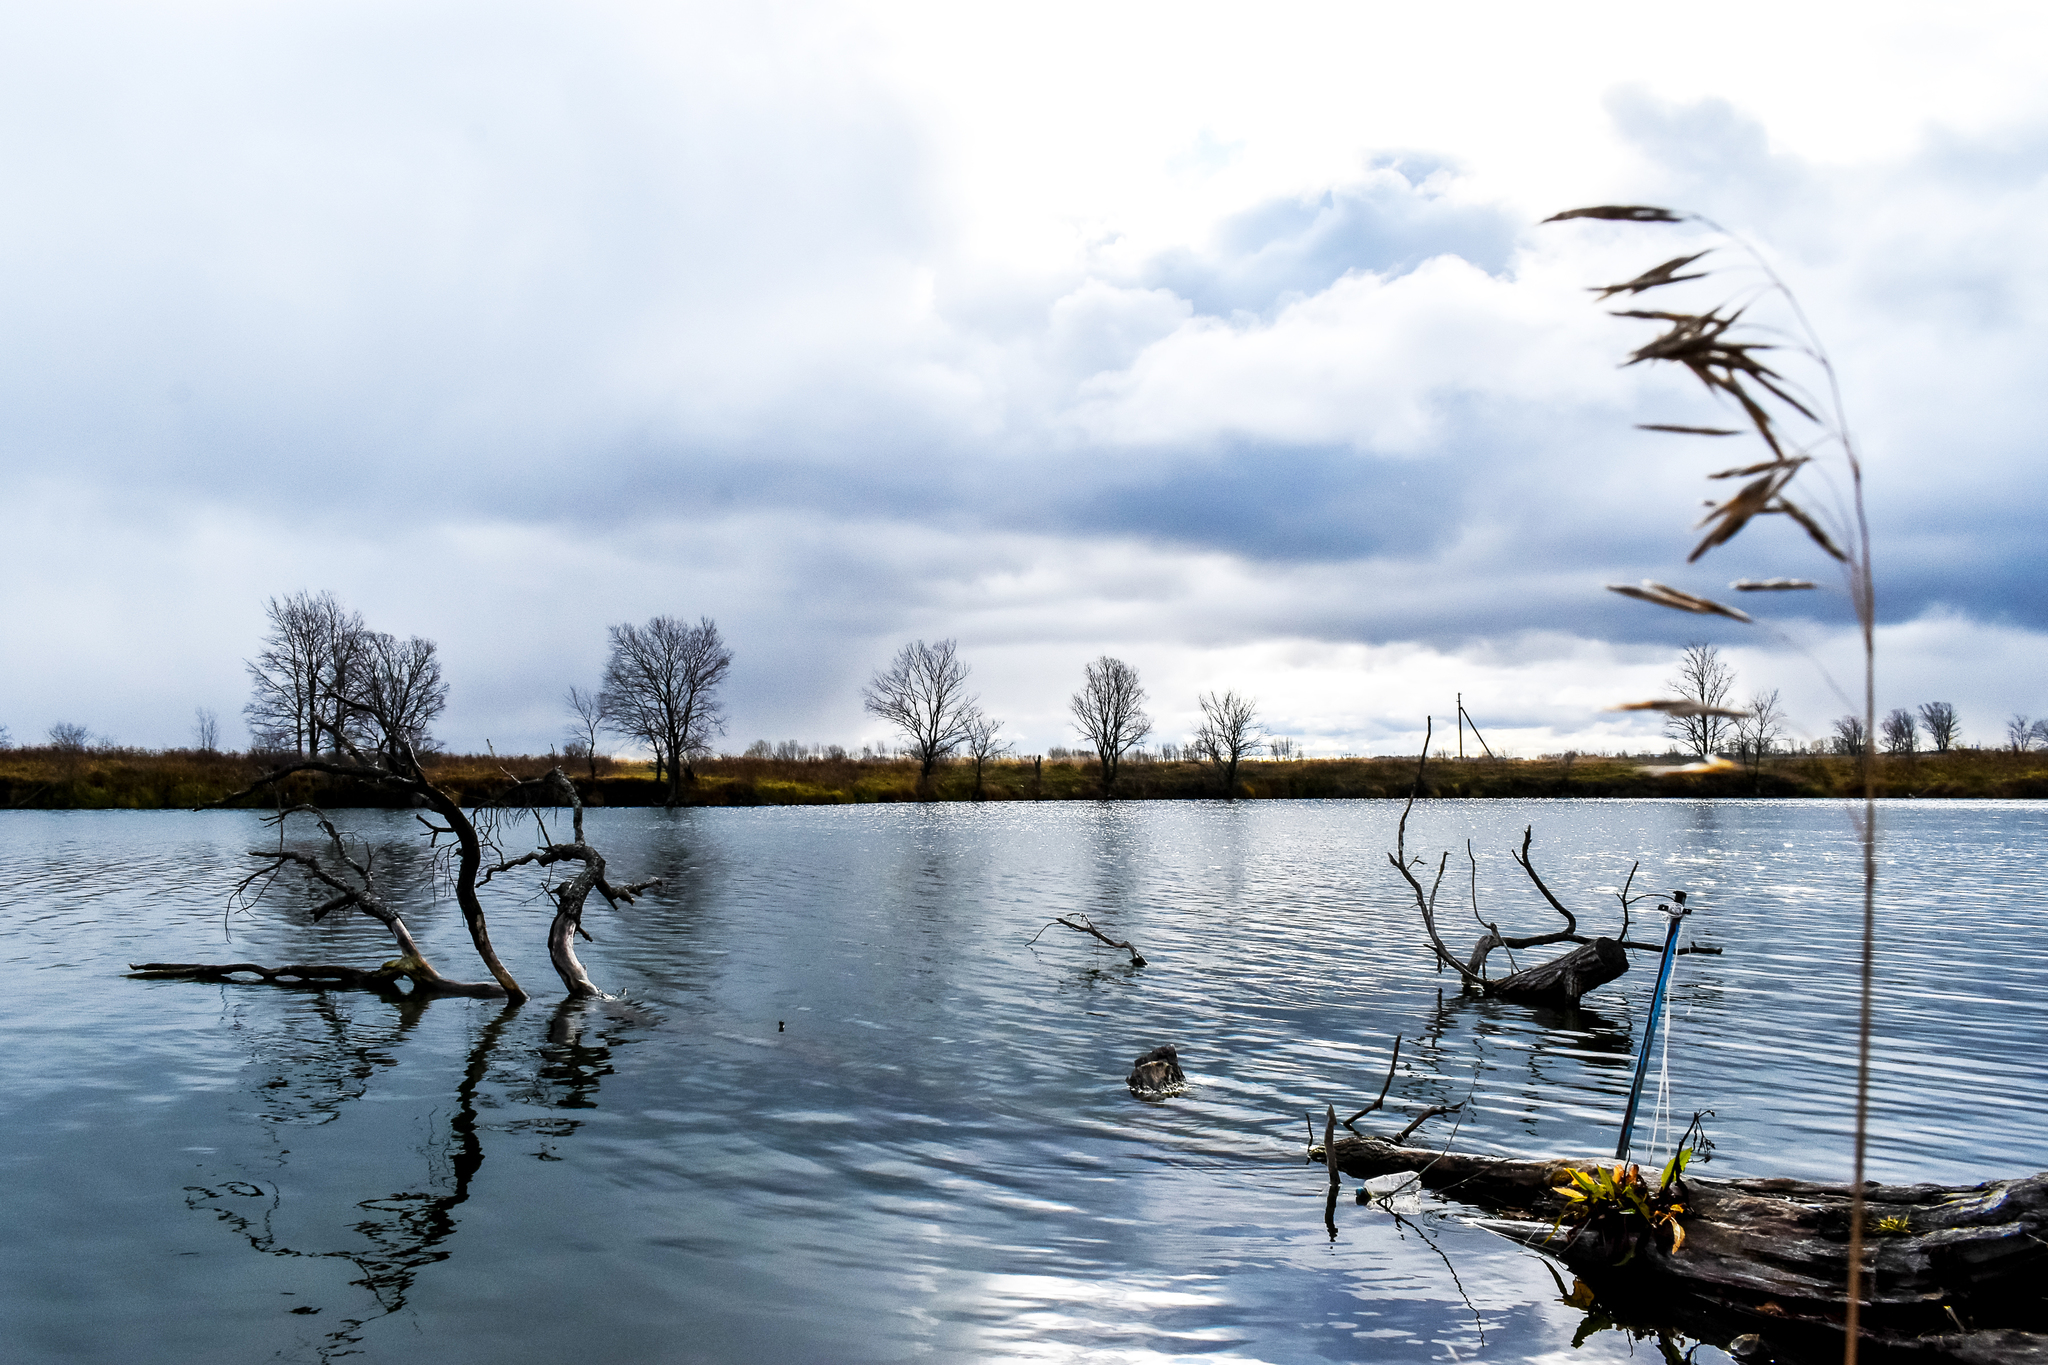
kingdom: Plantae
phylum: Tracheophyta
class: Liliopsida
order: Poales
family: Poaceae
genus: Phragmites
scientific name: Phragmites australis
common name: Common reed
